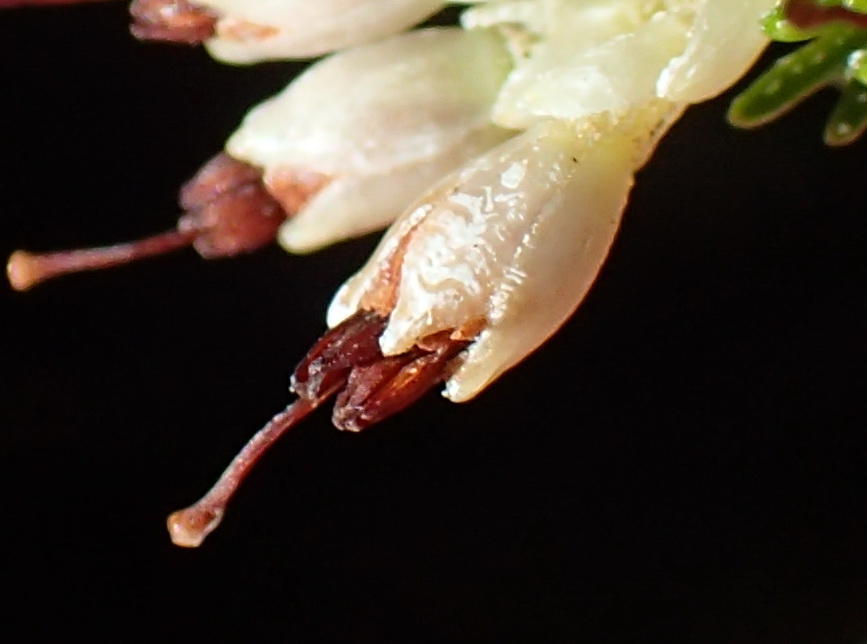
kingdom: Plantae
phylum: Tracheophyta
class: Magnoliopsida
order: Ericales
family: Ericaceae
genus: Erica
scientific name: Erica imbricata
